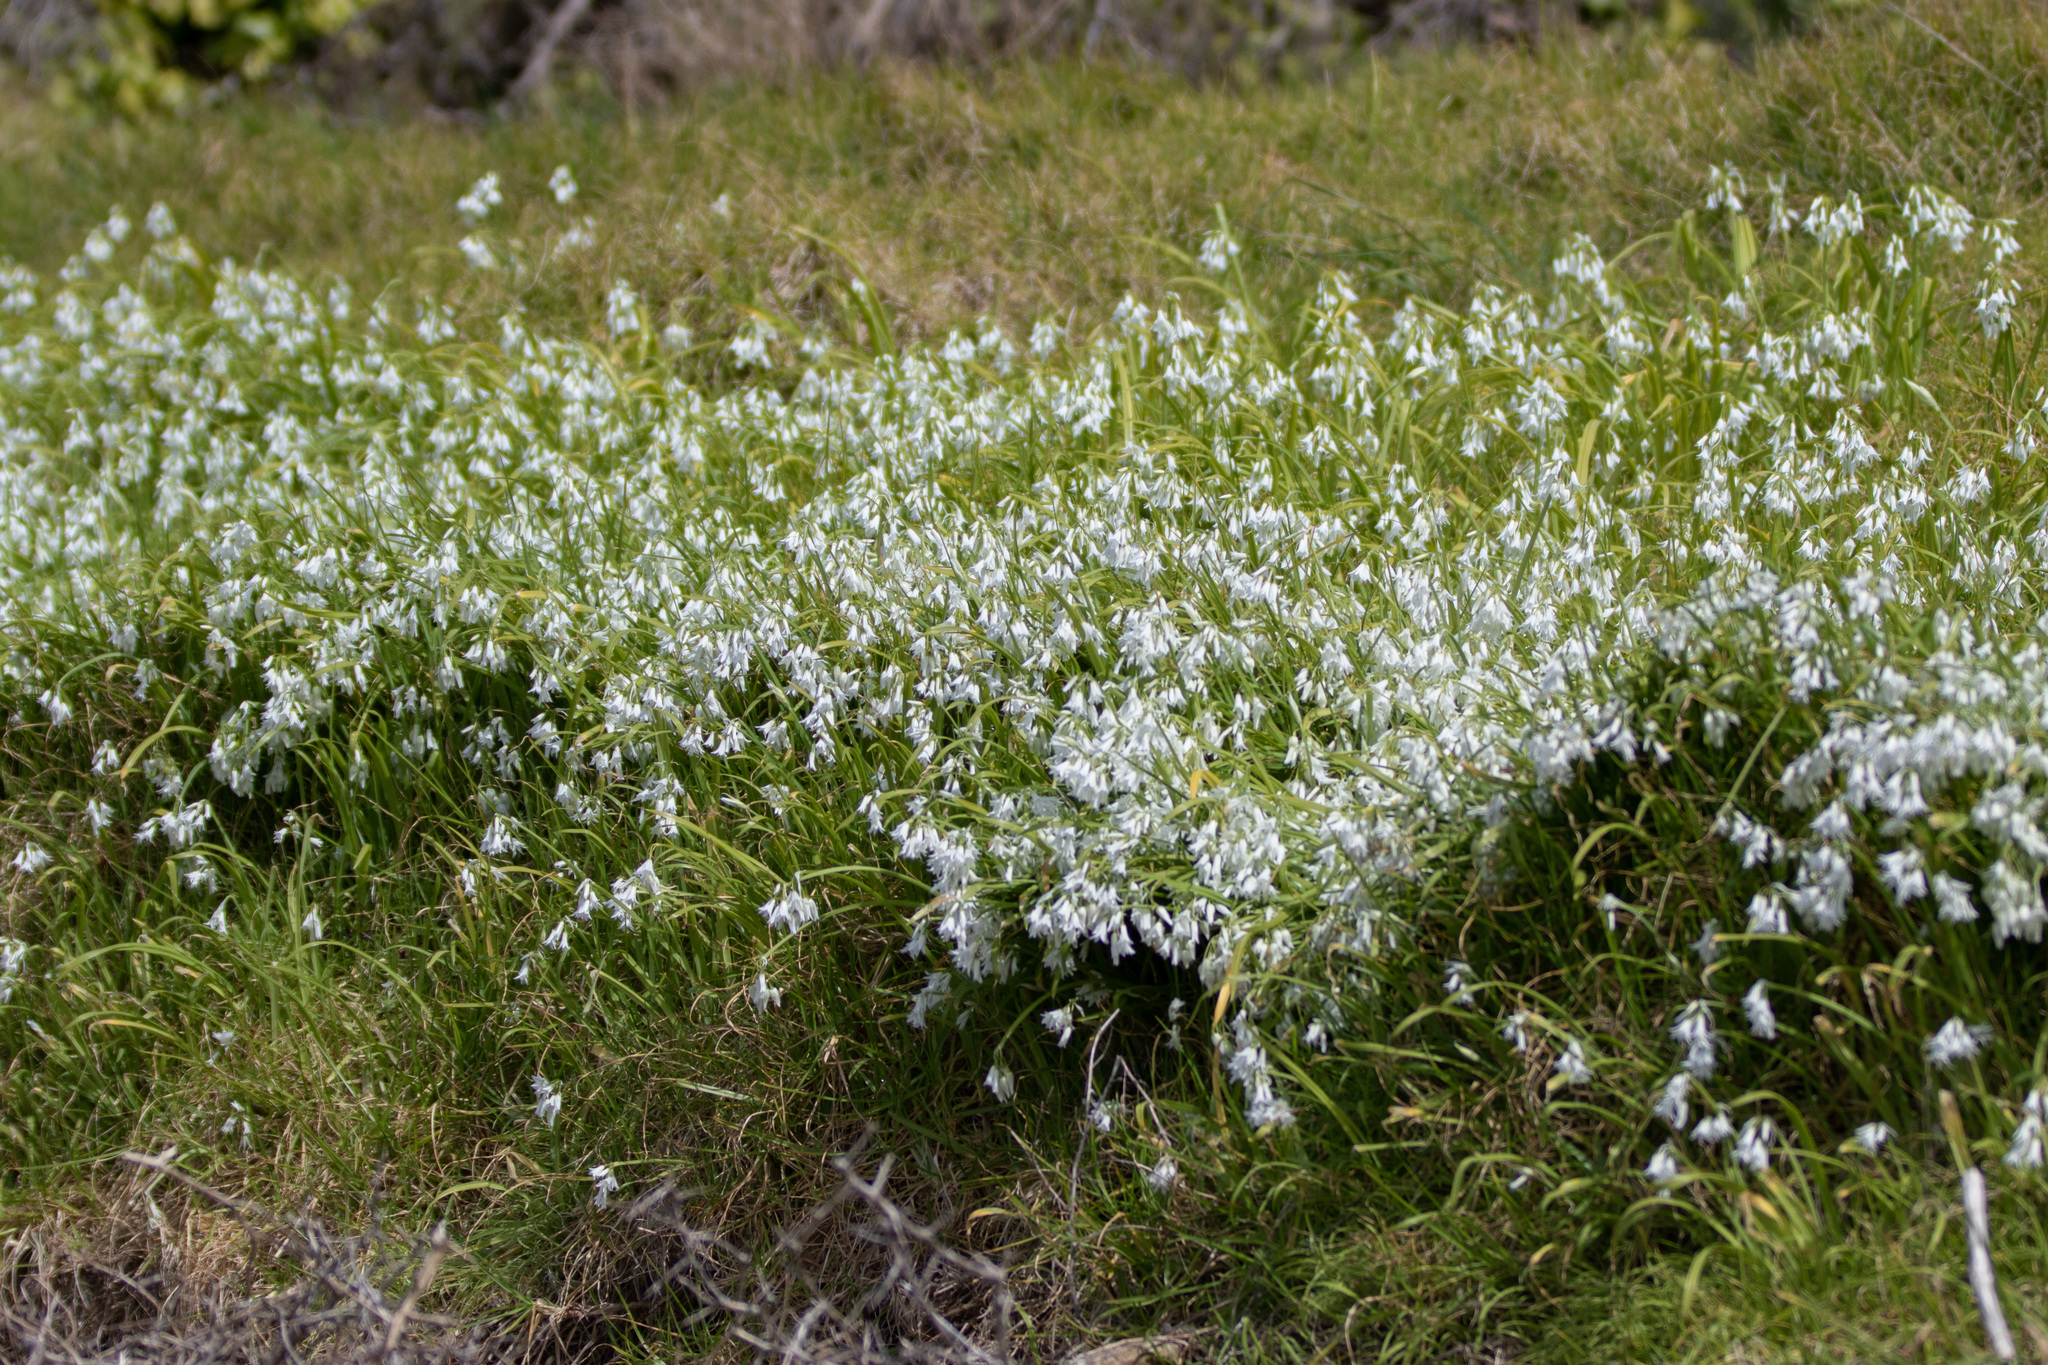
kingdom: Plantae
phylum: Tracheophyta
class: Liliopsida
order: Asparagales
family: Amaryllidaceae
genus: Allium
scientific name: Allium triquetrum
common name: Three-cornered garlic
